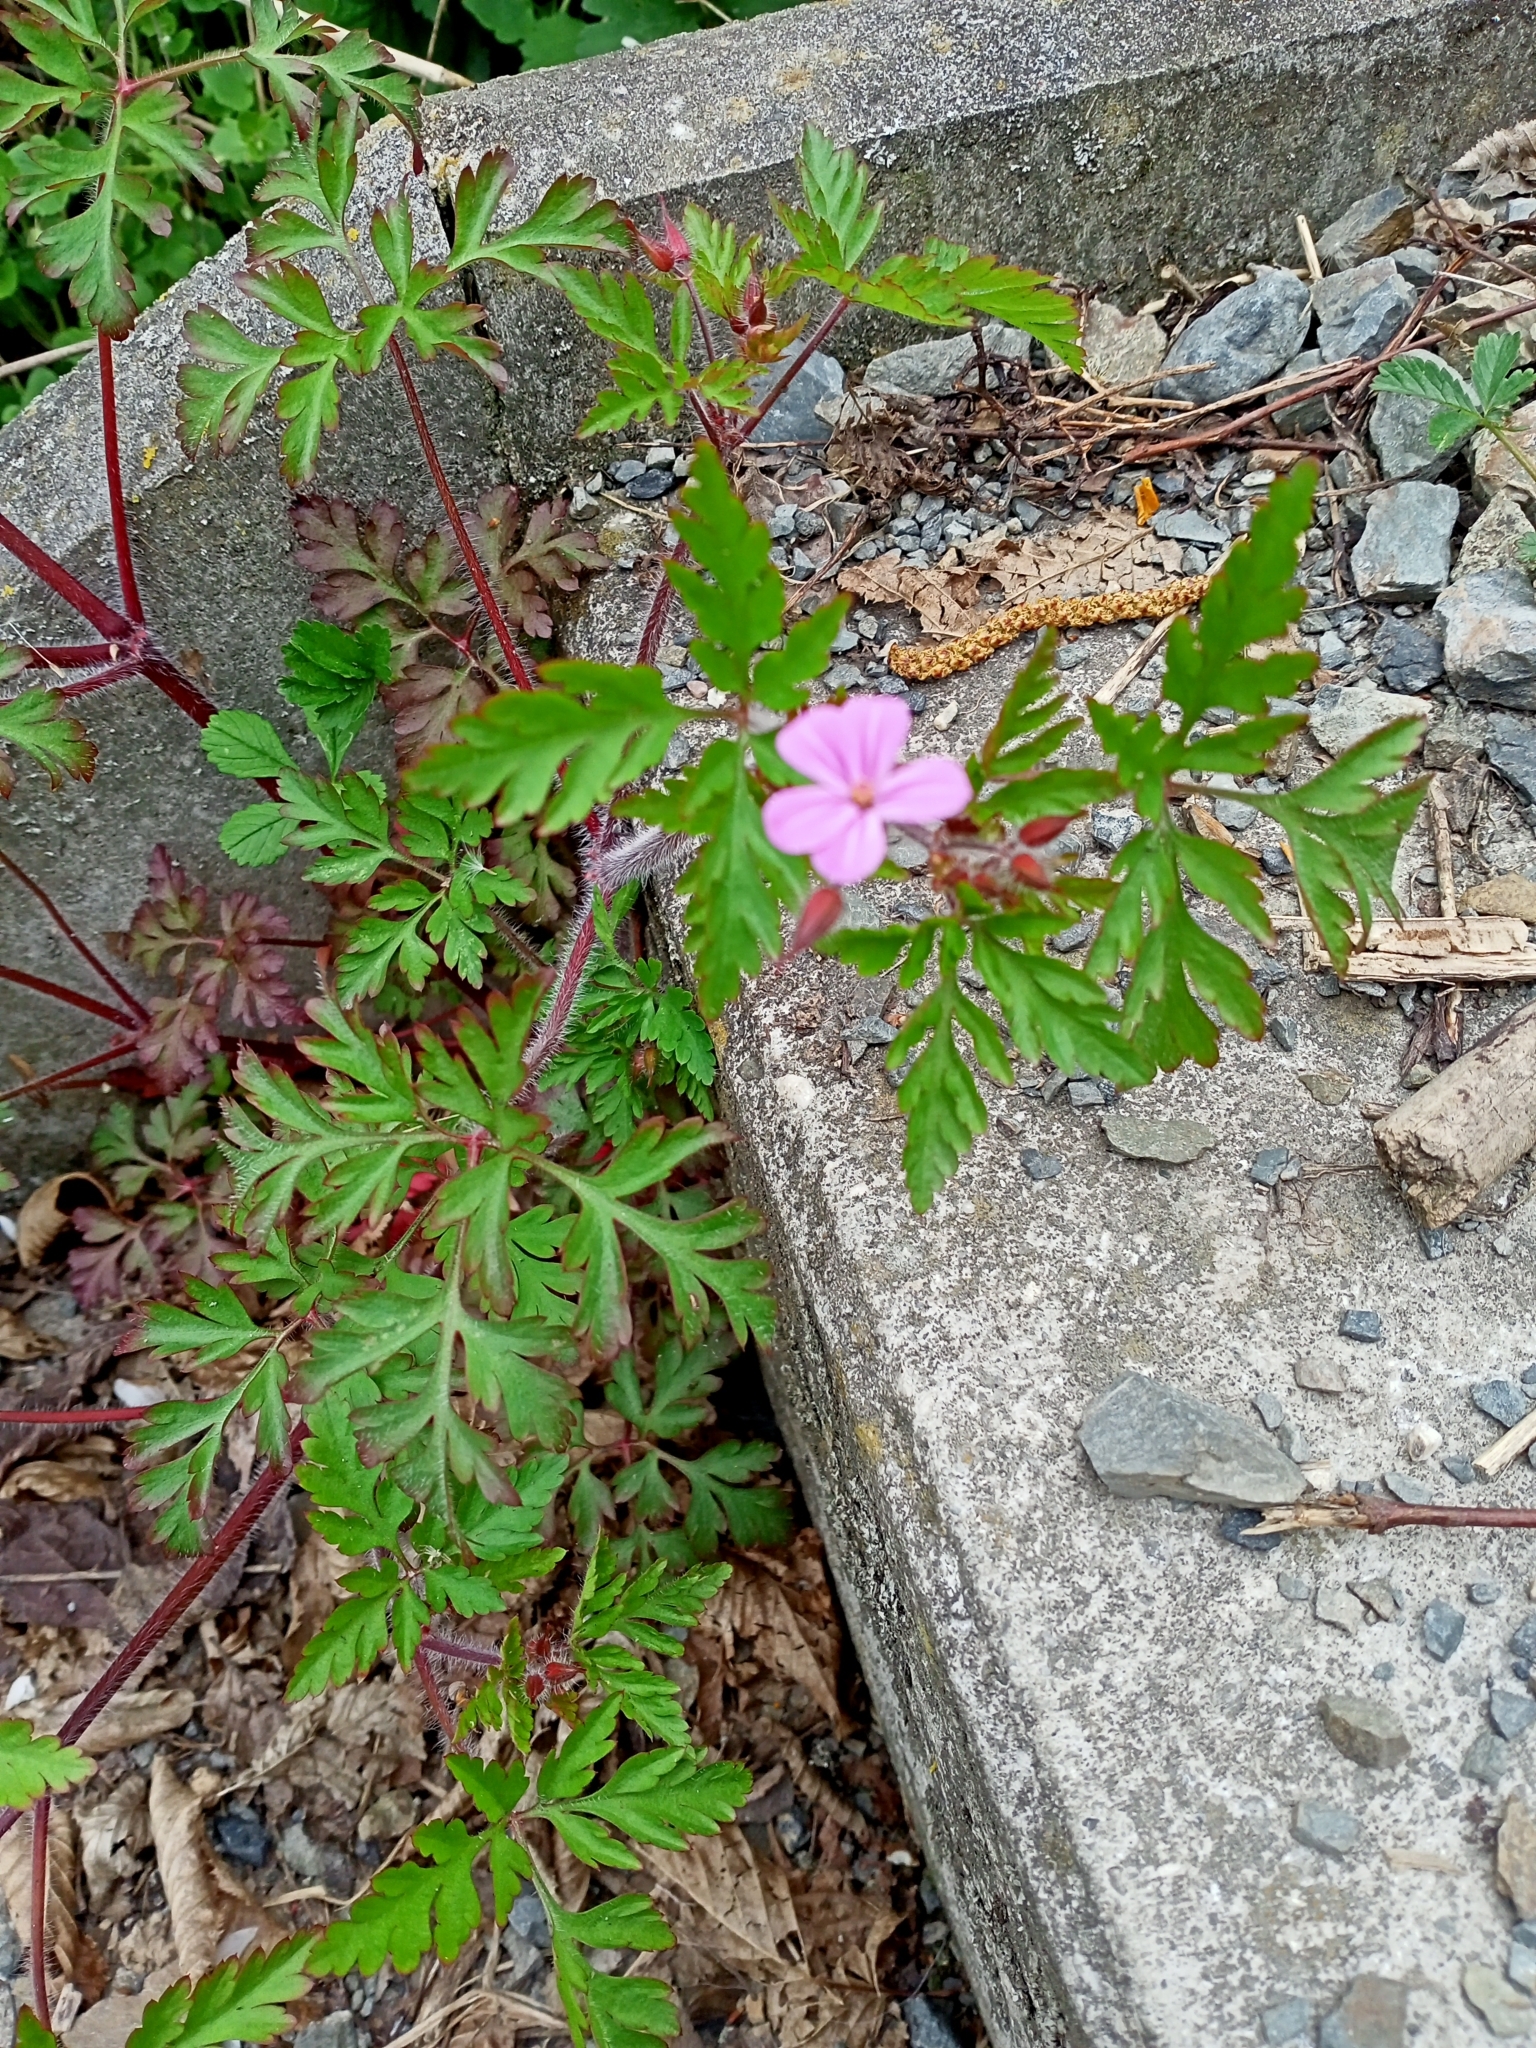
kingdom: Plantae
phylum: Tracheophyta
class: Magnoliopsida
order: Geraniales
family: Geraniaceae
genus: Geranium
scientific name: Geranium robertianum
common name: Herb-robert
